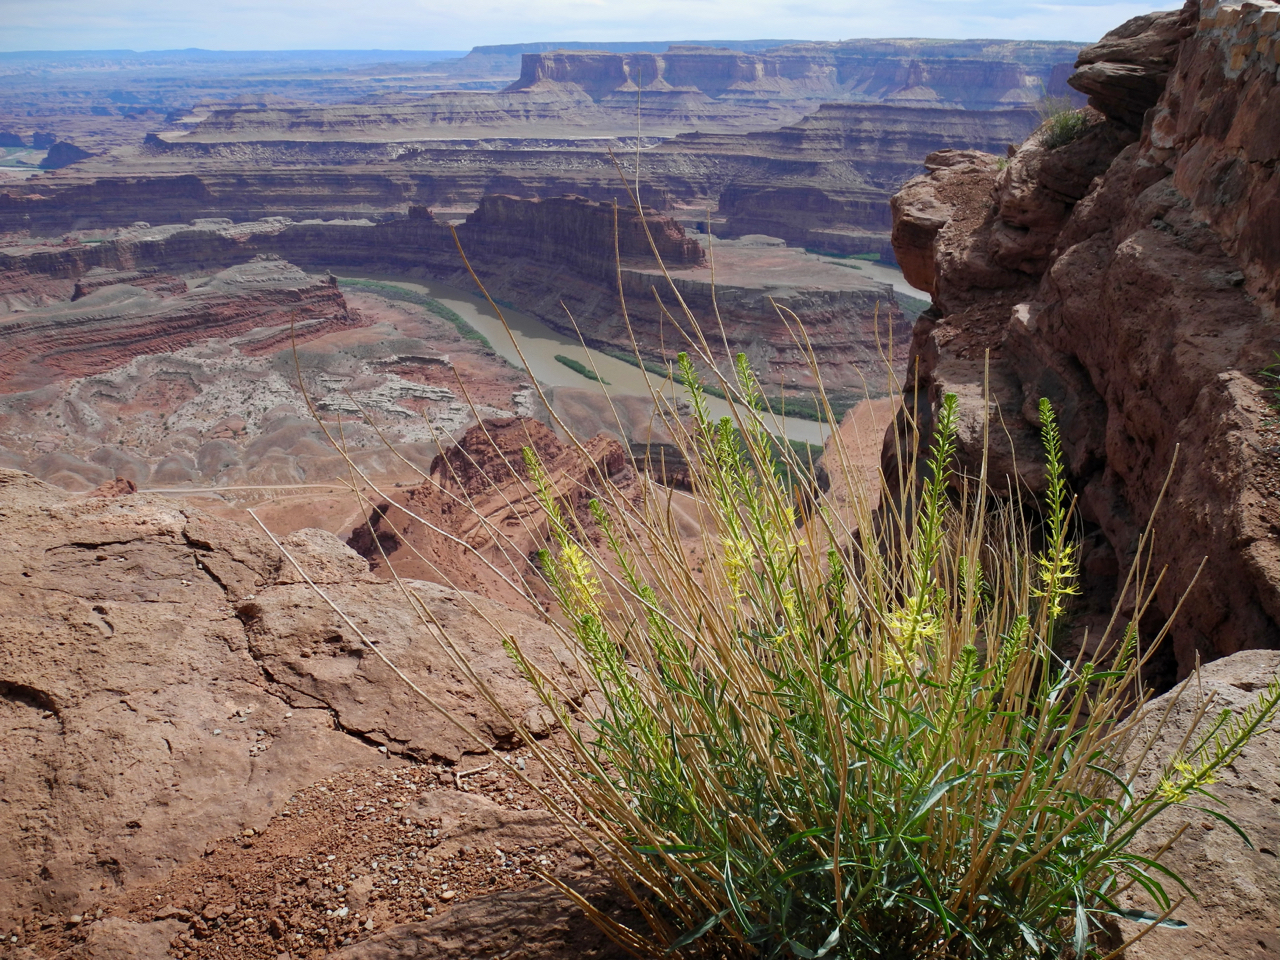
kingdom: Plantae
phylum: Tracheophyta
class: Magnoliopsida
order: Brassicales
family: Brassicaceae
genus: Stanleya
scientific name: Stanleya pinnata
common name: Prince's-plume
